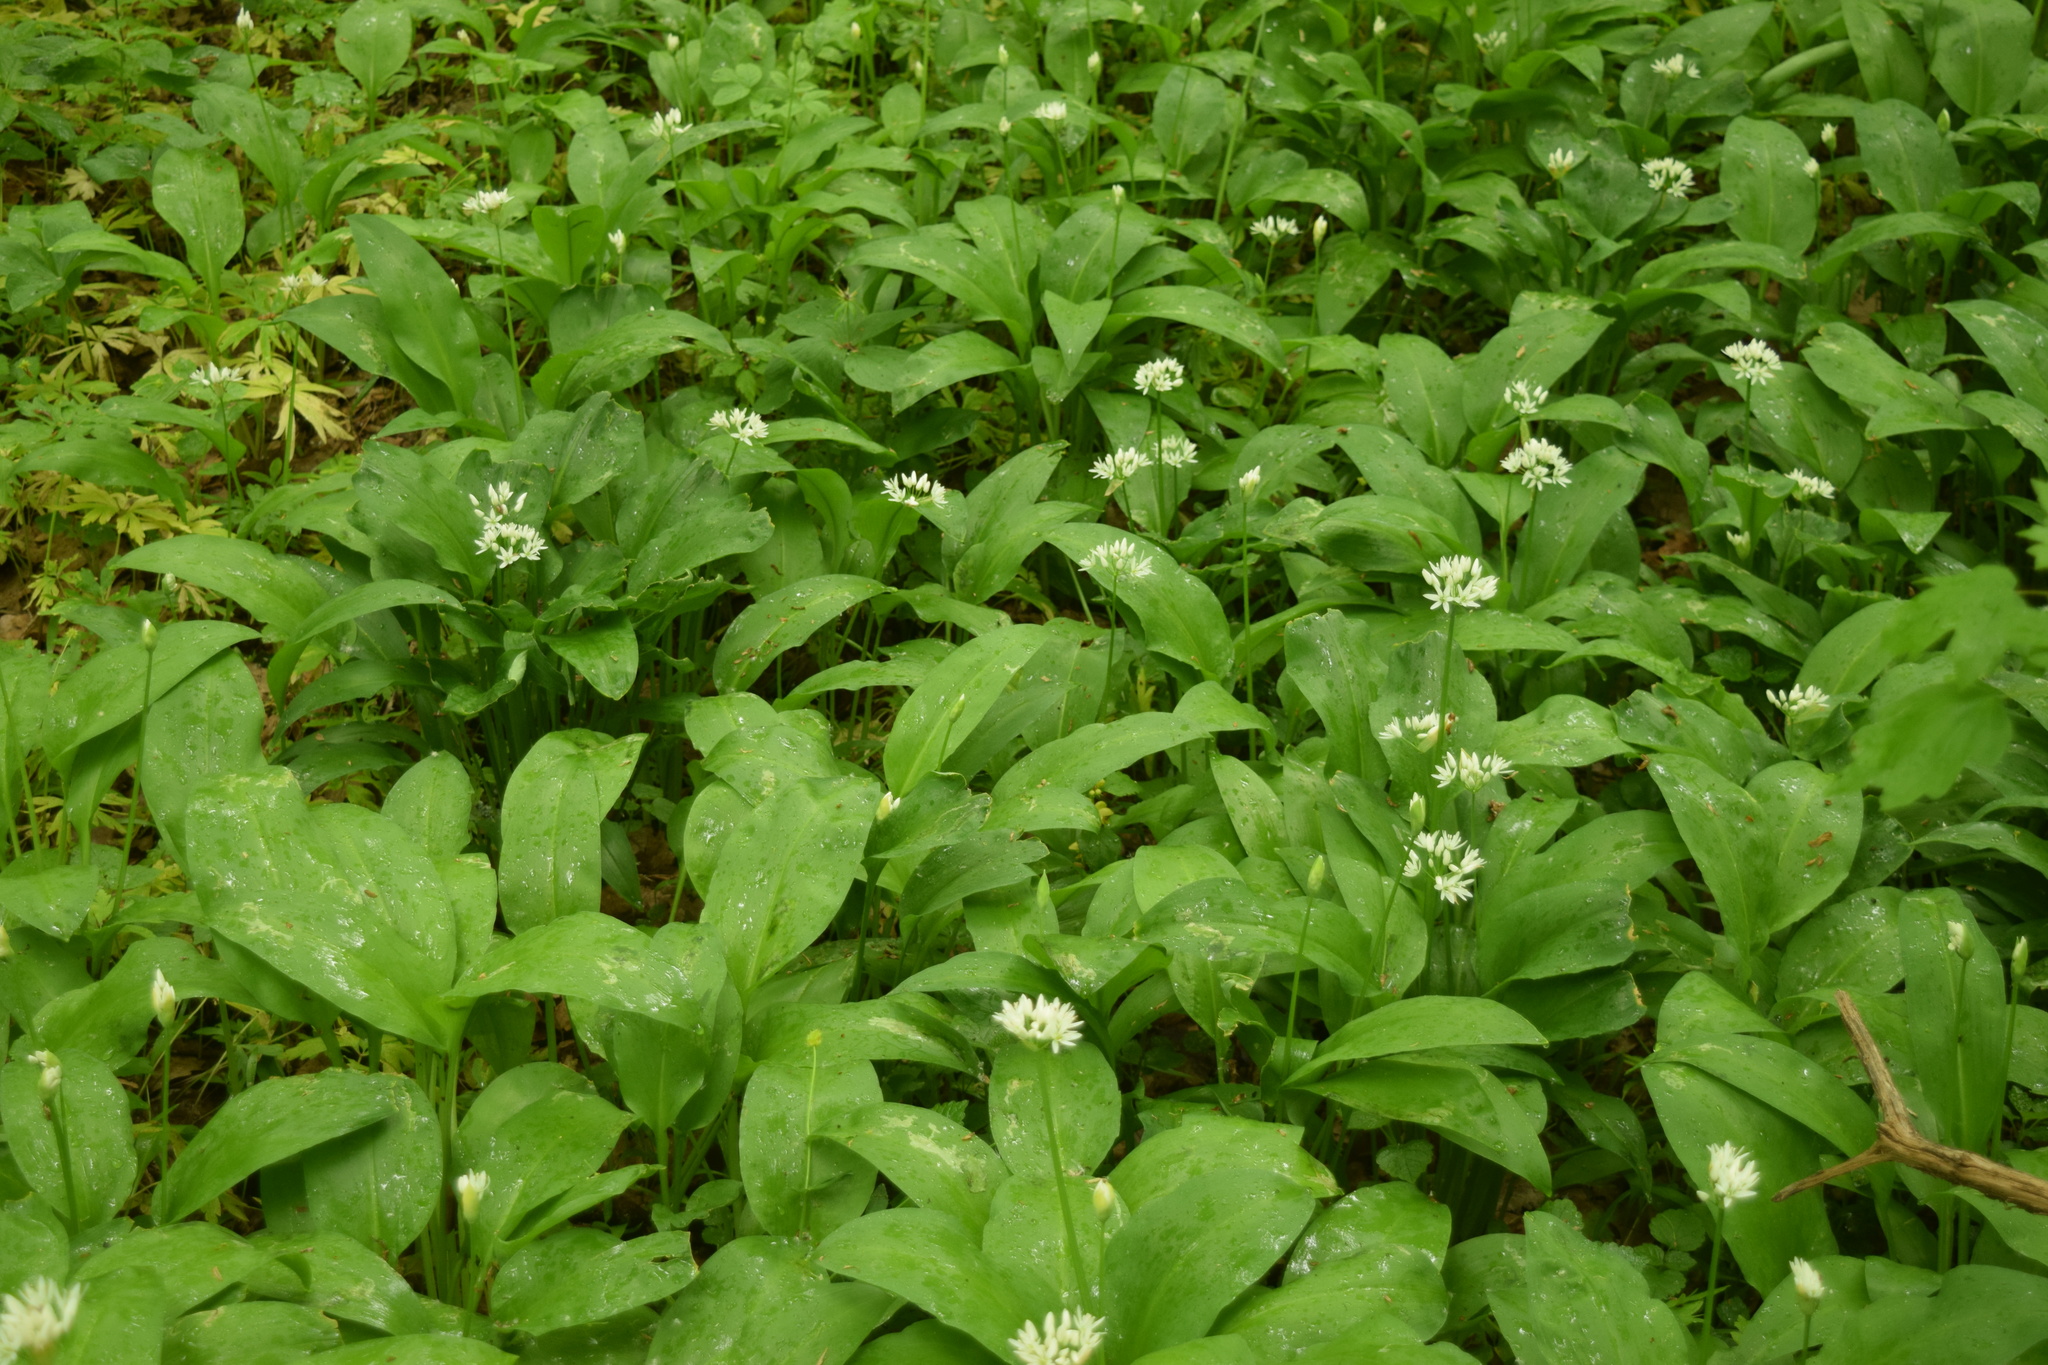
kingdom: Plantae
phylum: Tracheophyta
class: Liliopsida
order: Asparagales
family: Amaryllidaceae
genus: Allium
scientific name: Allium ursinum
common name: Ramsons
